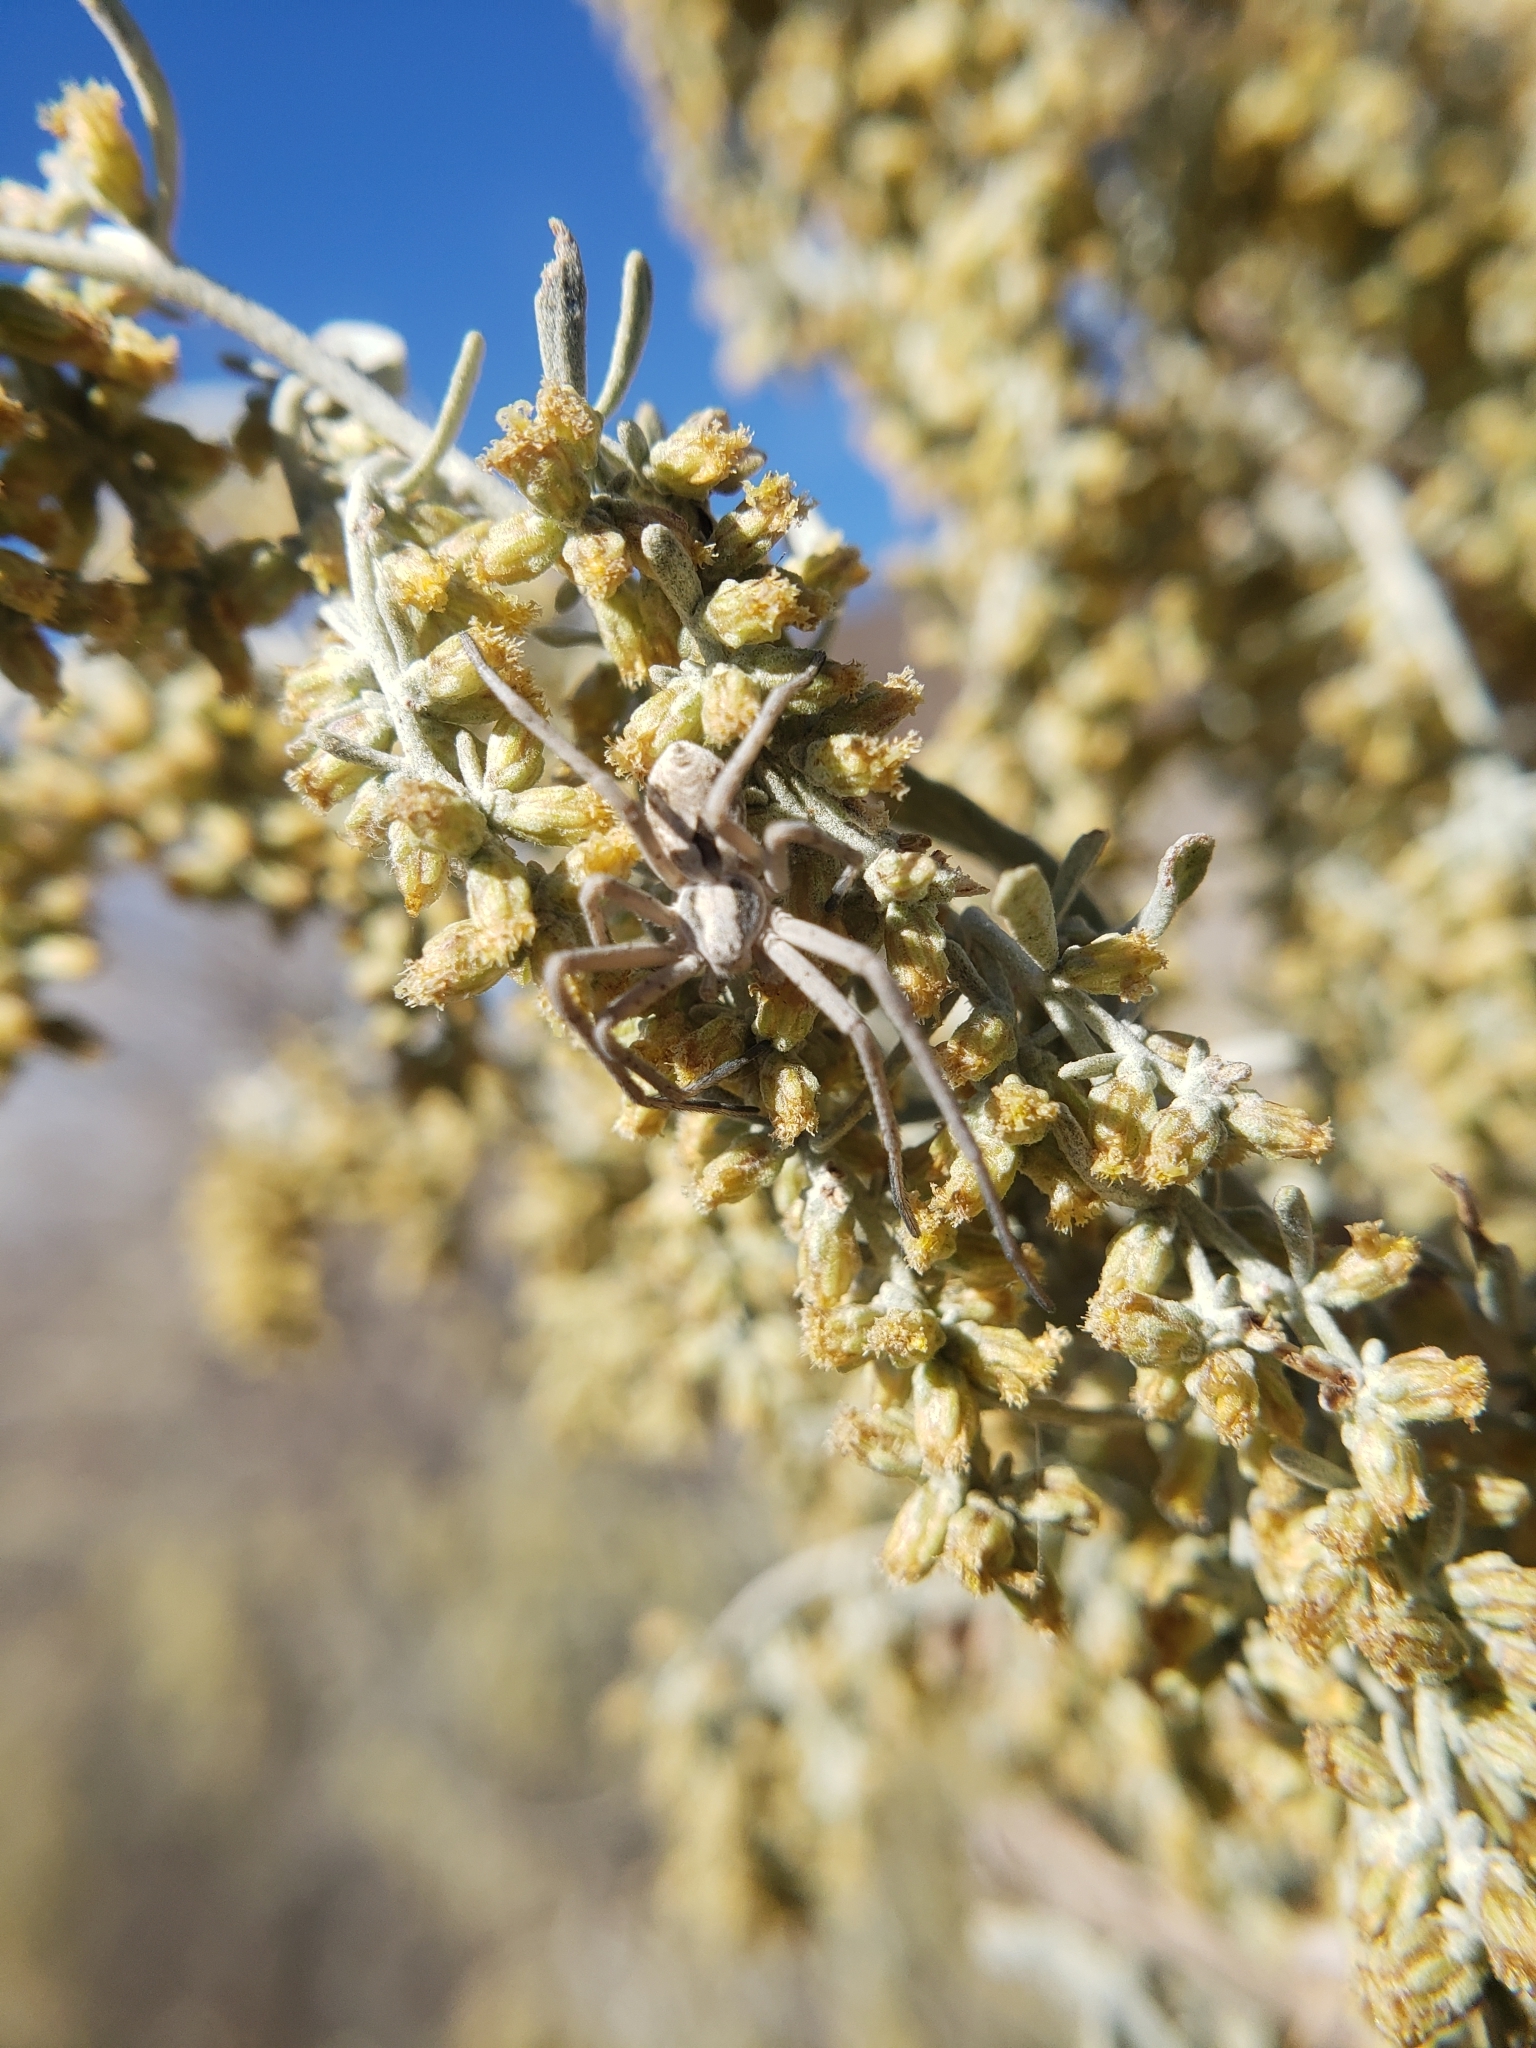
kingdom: Animalia
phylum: Arthropoda
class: Arachnida
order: Araneae
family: Philodromidae
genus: Rhysodromus
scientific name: Rhysodromus histrio
